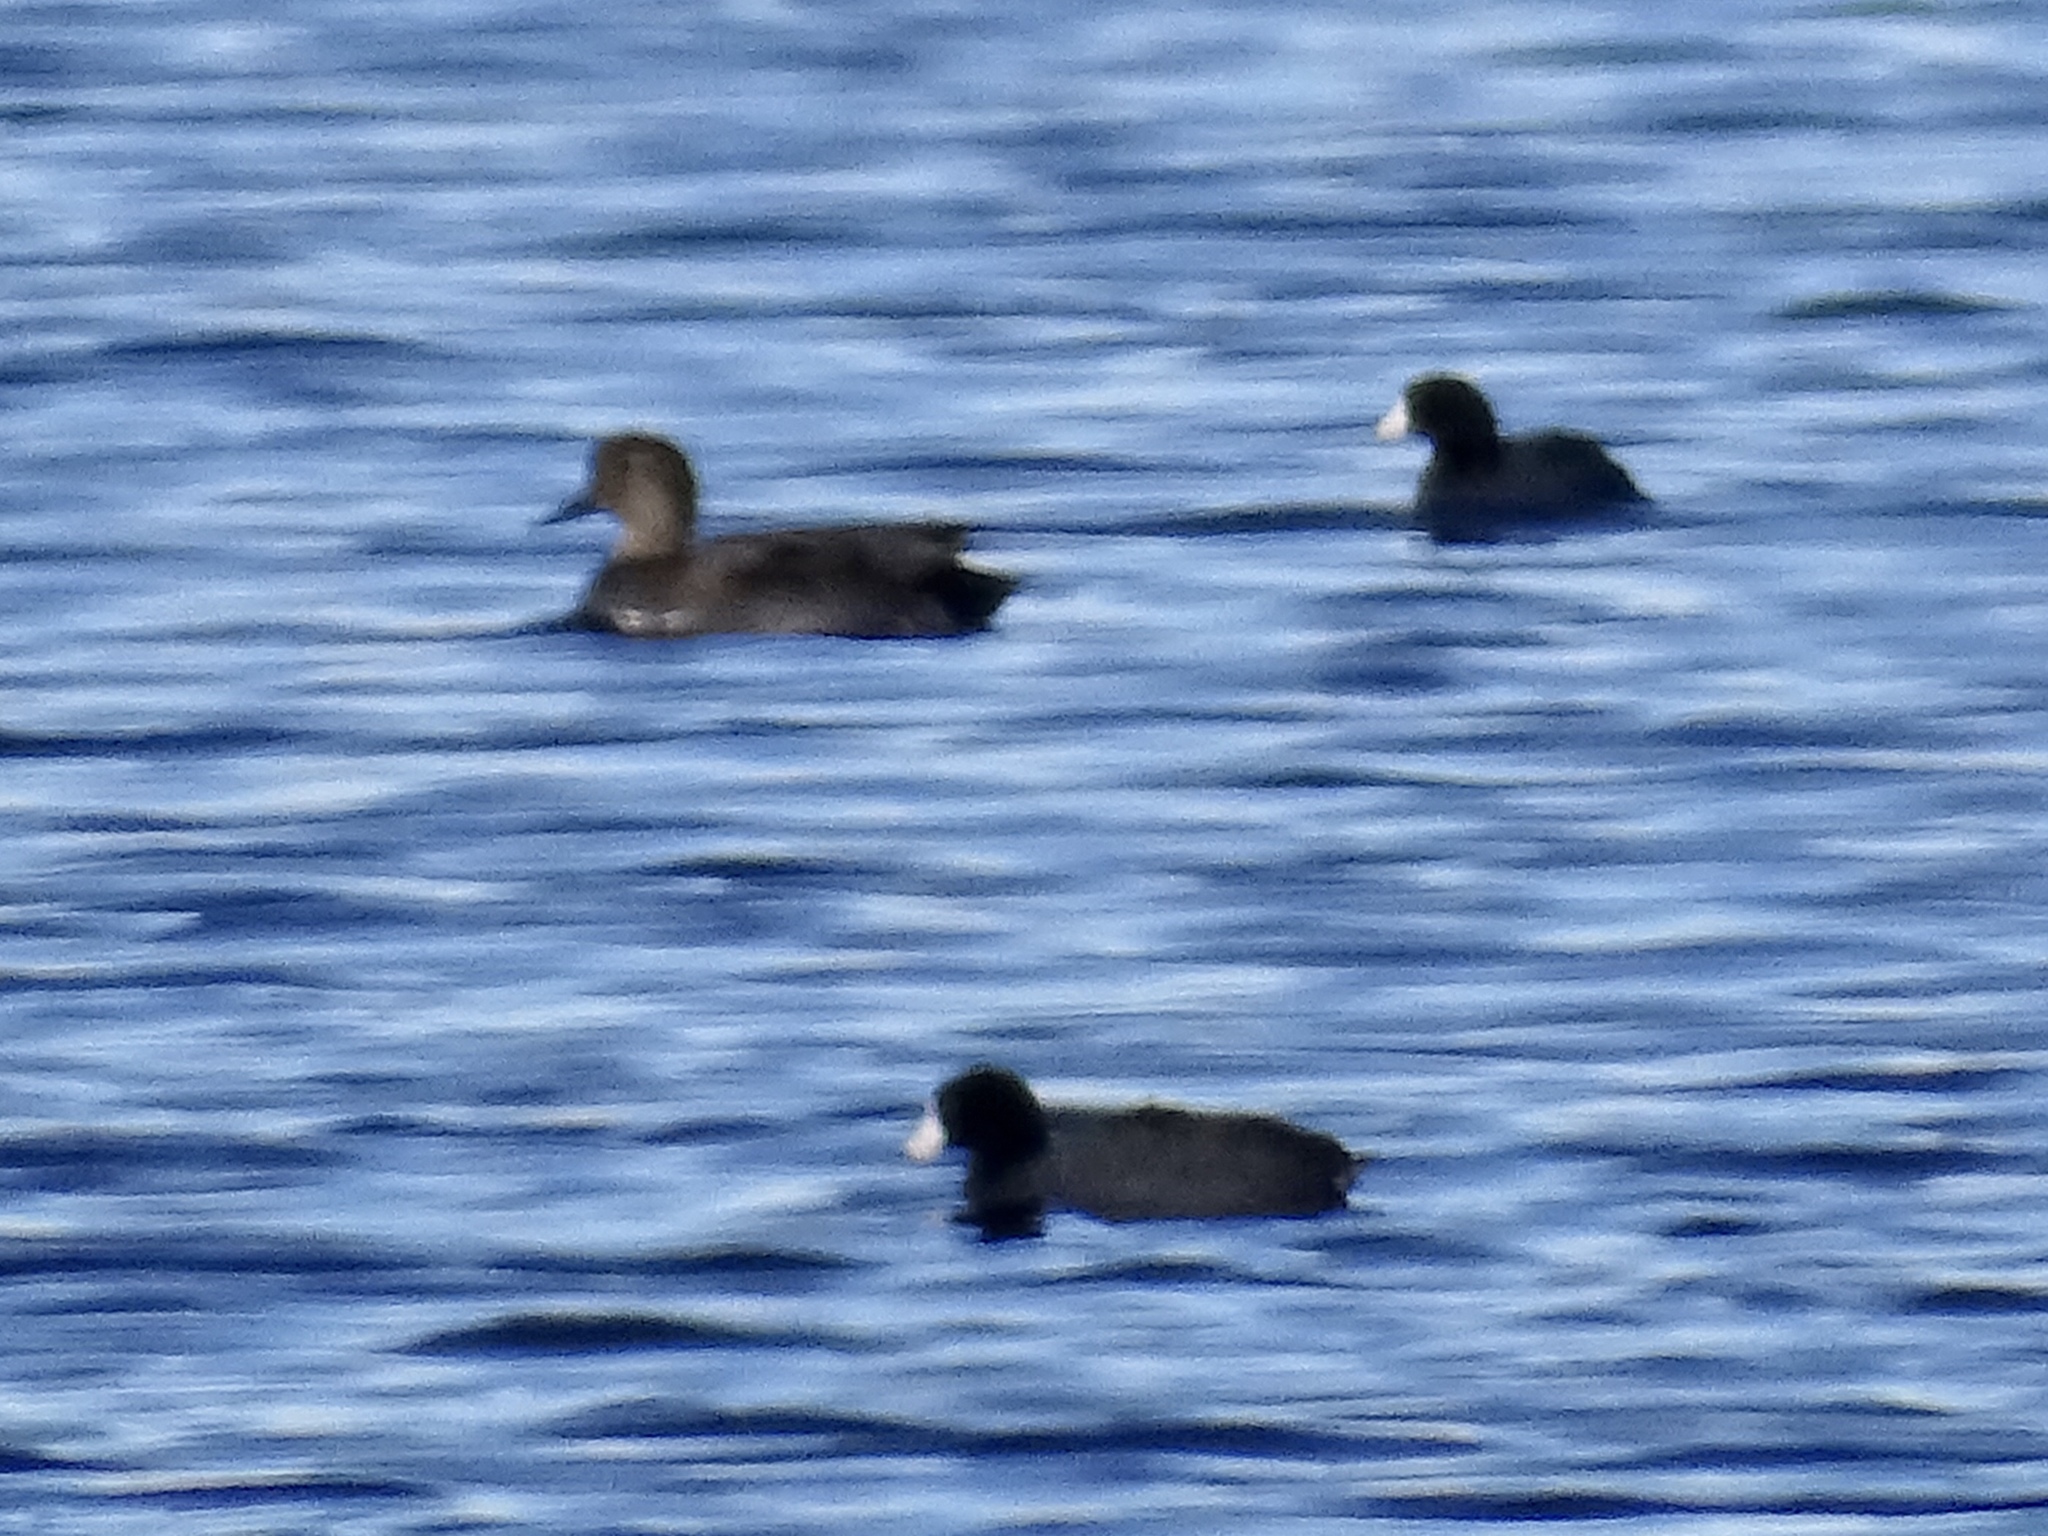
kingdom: Animalia
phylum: Chordata
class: Aves
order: Anseriformes
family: Anatidae
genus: Mareca
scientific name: Mareca strepera
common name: Gadwall
